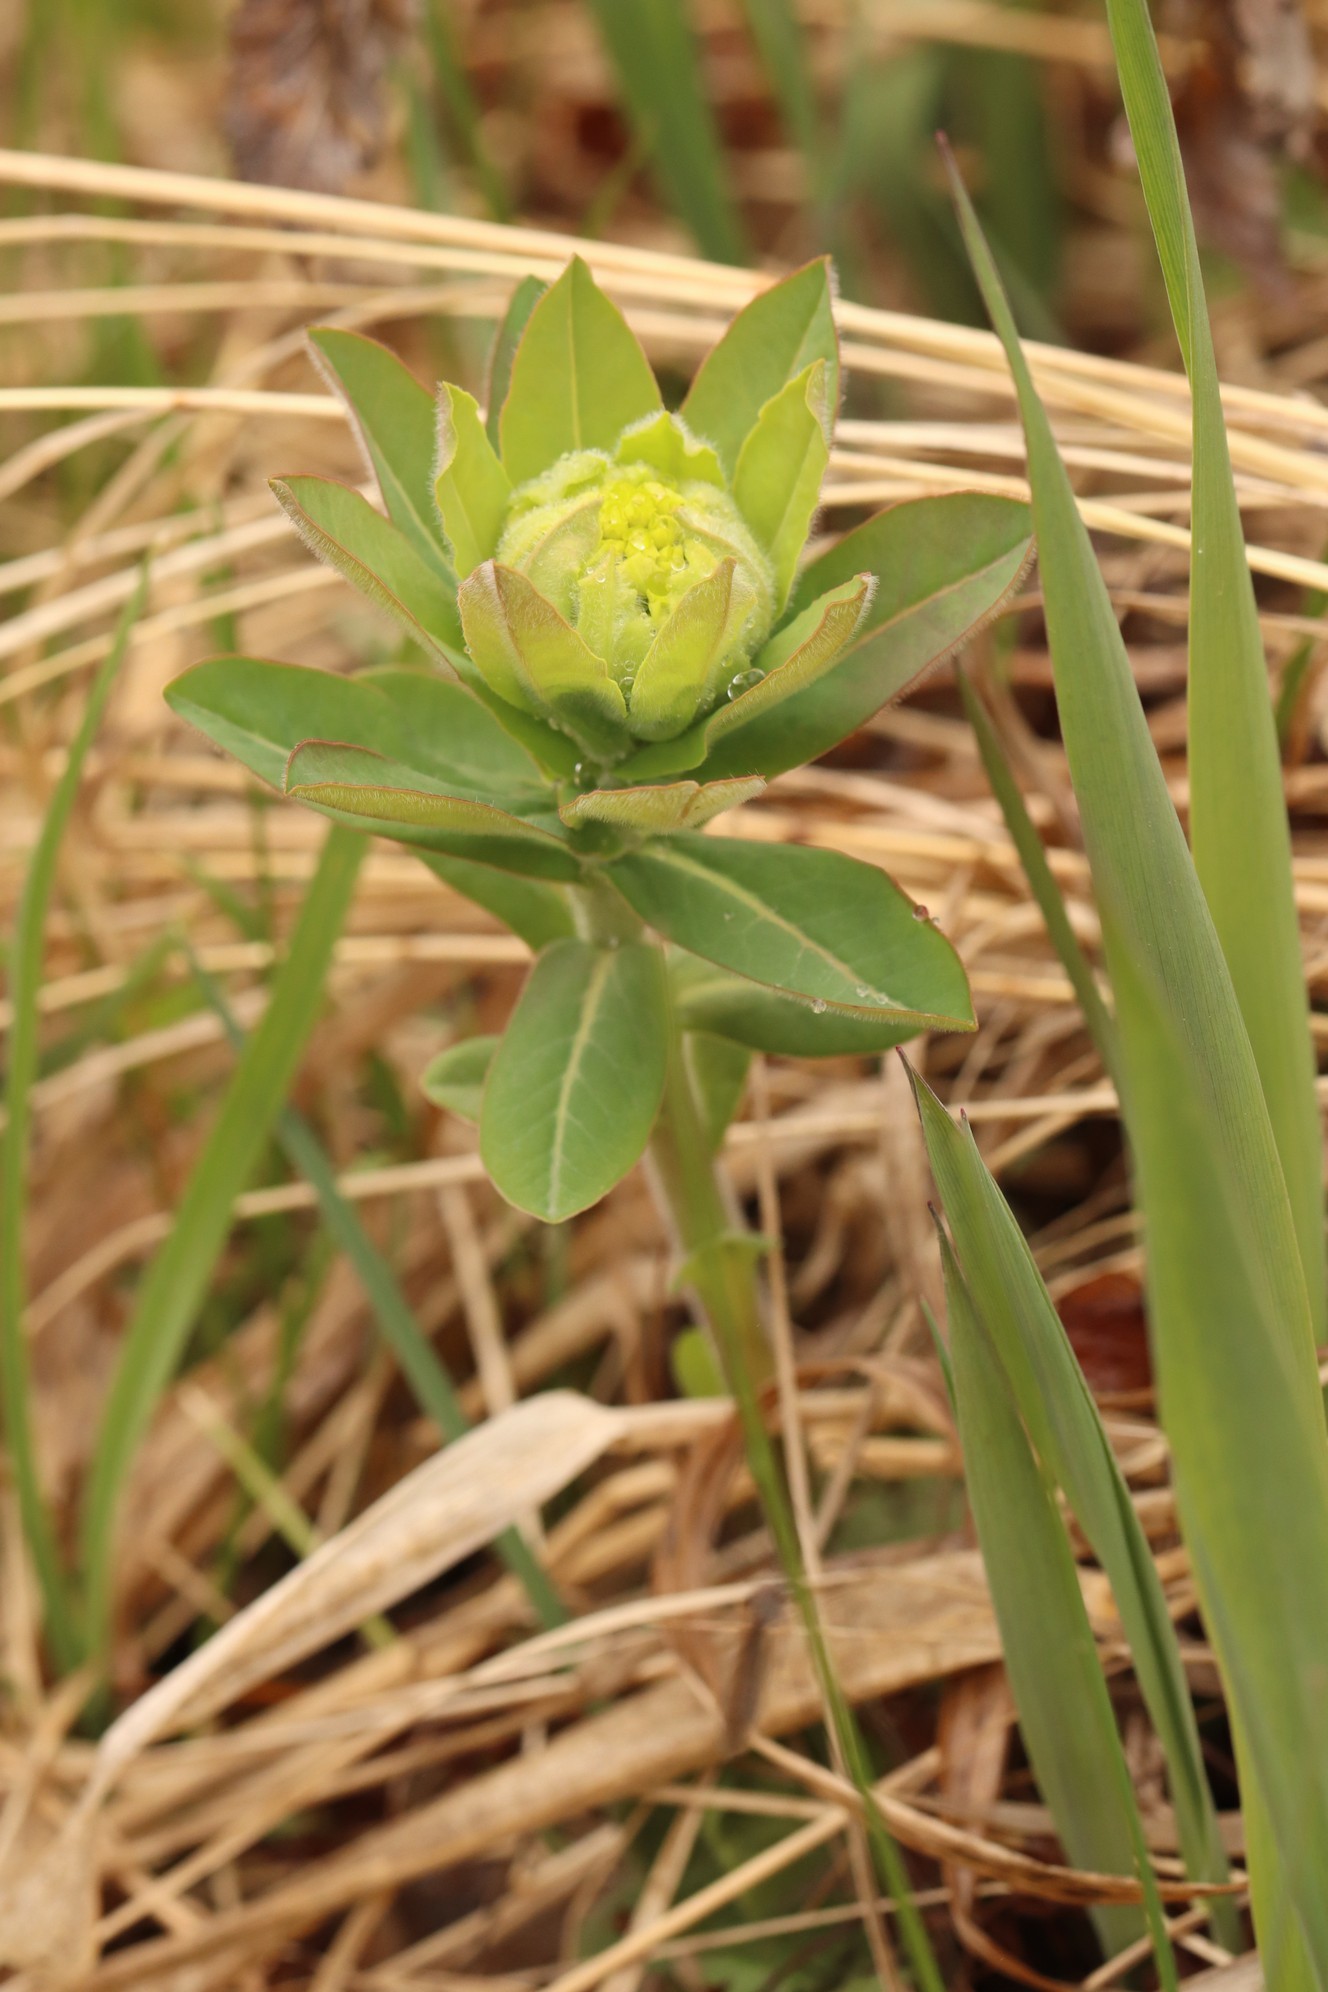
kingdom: Plantae
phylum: Tracheophyta
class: Magnoliopsida
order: Malpighiales
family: Euphorbiaceae
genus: Euphorbia
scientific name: Euphorbia pilosa
